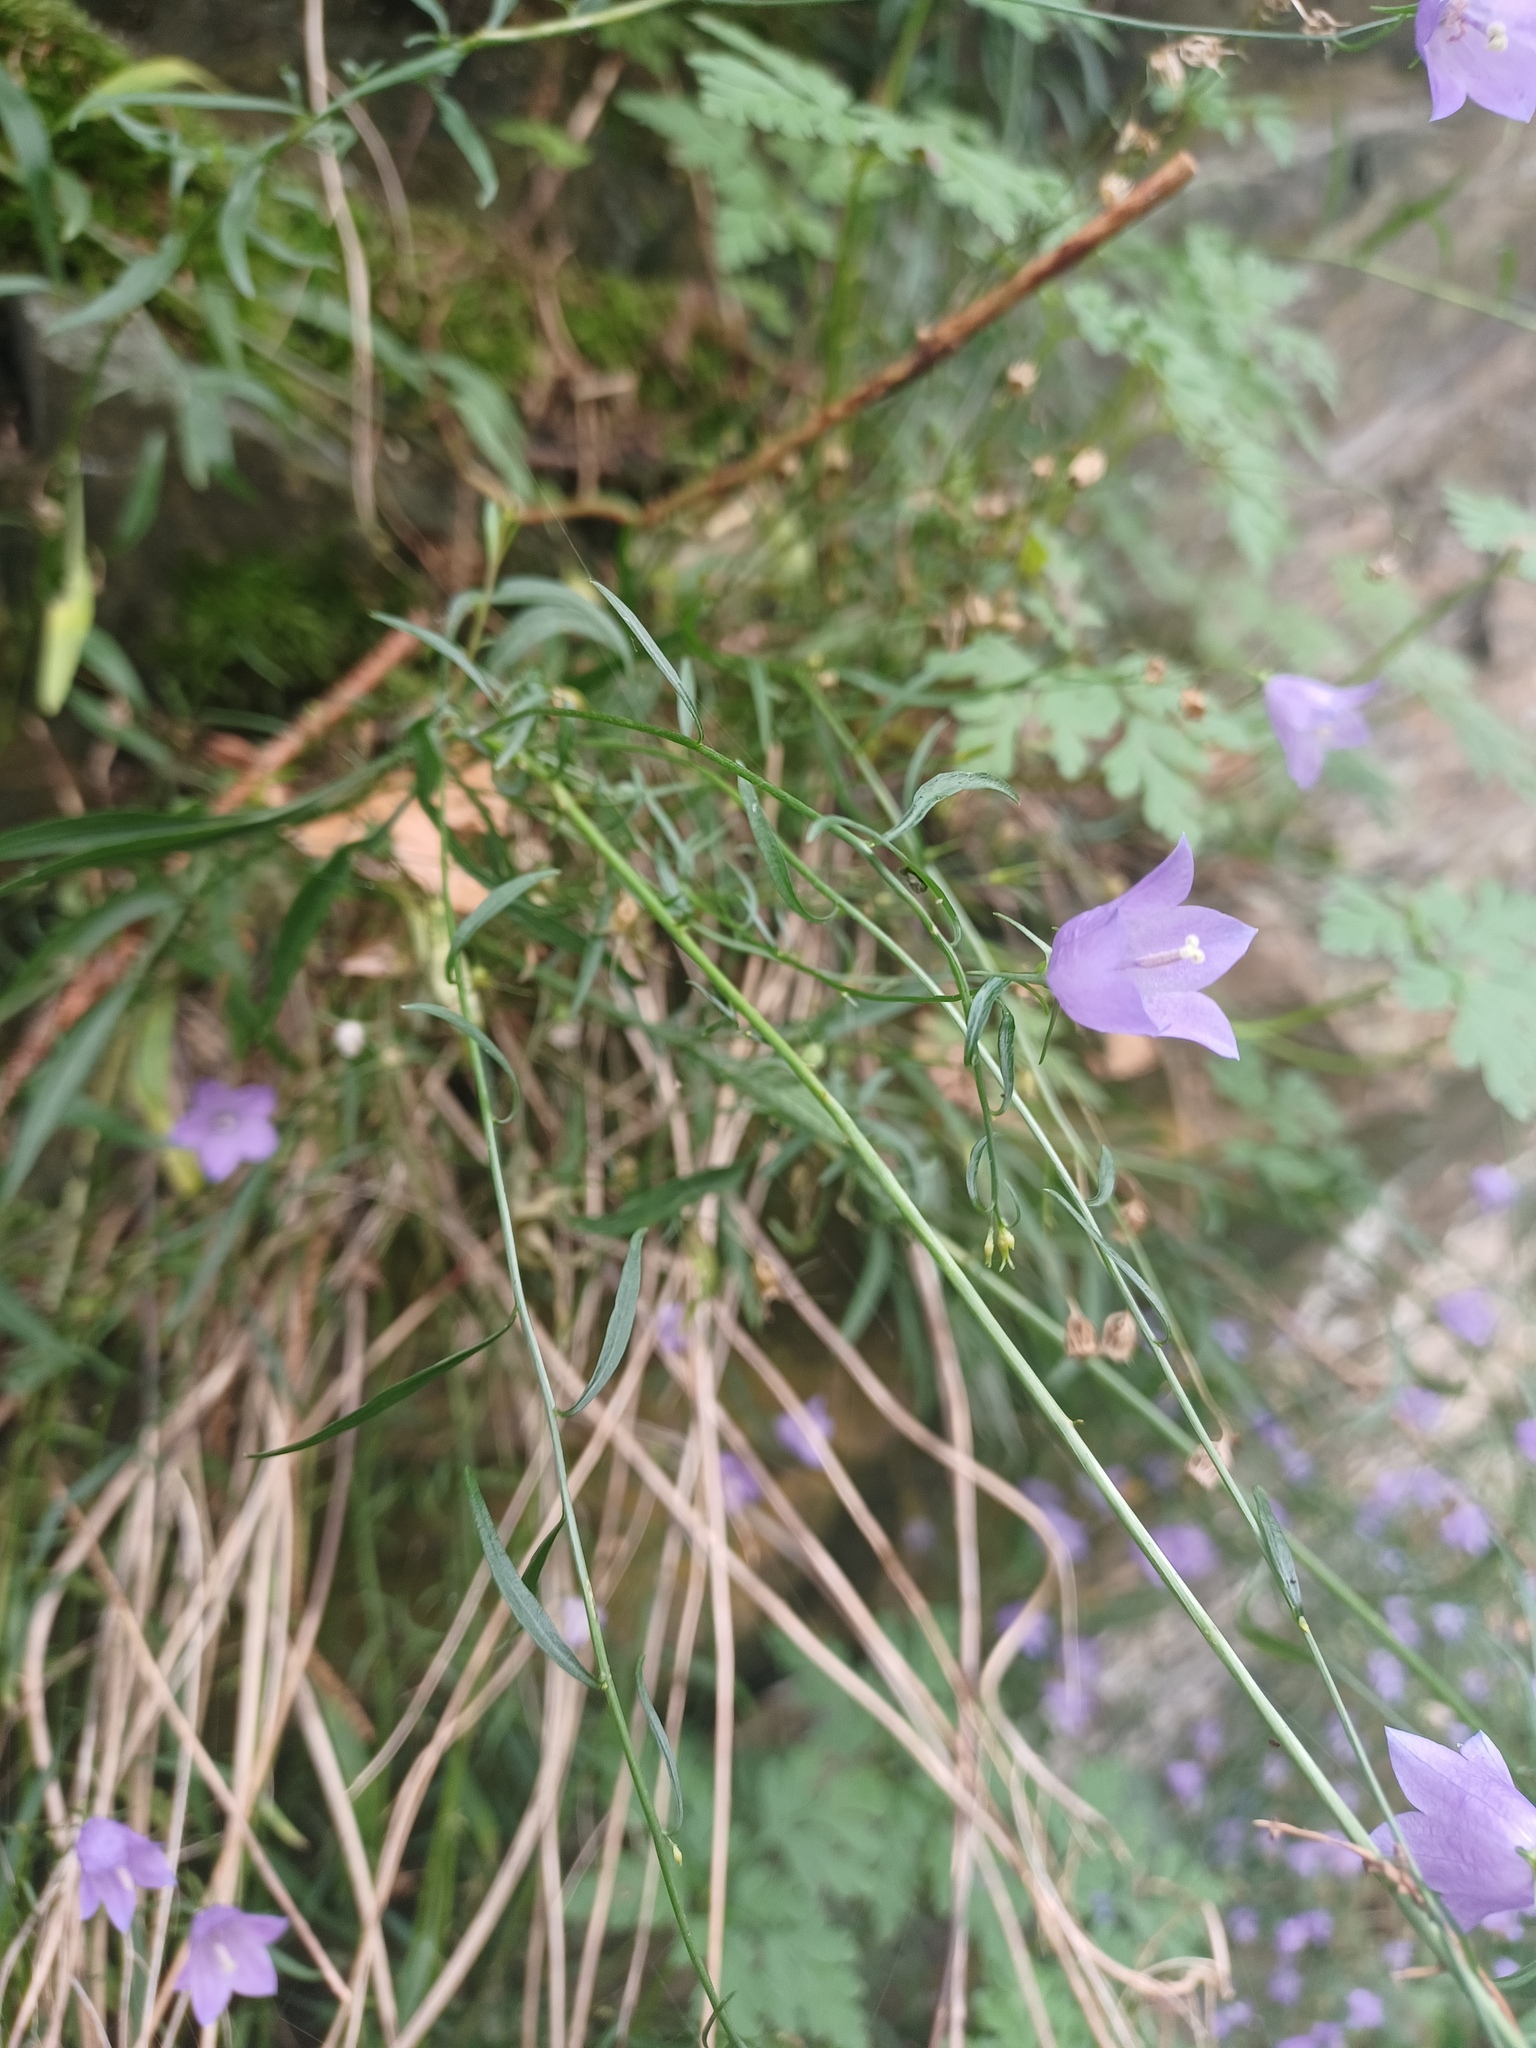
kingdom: Plantae
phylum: Tracheophyta
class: Magnoliopsida
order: Asterales
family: Campanulaceae
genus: Campanula
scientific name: Campanula rotundifolia
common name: Harebell
